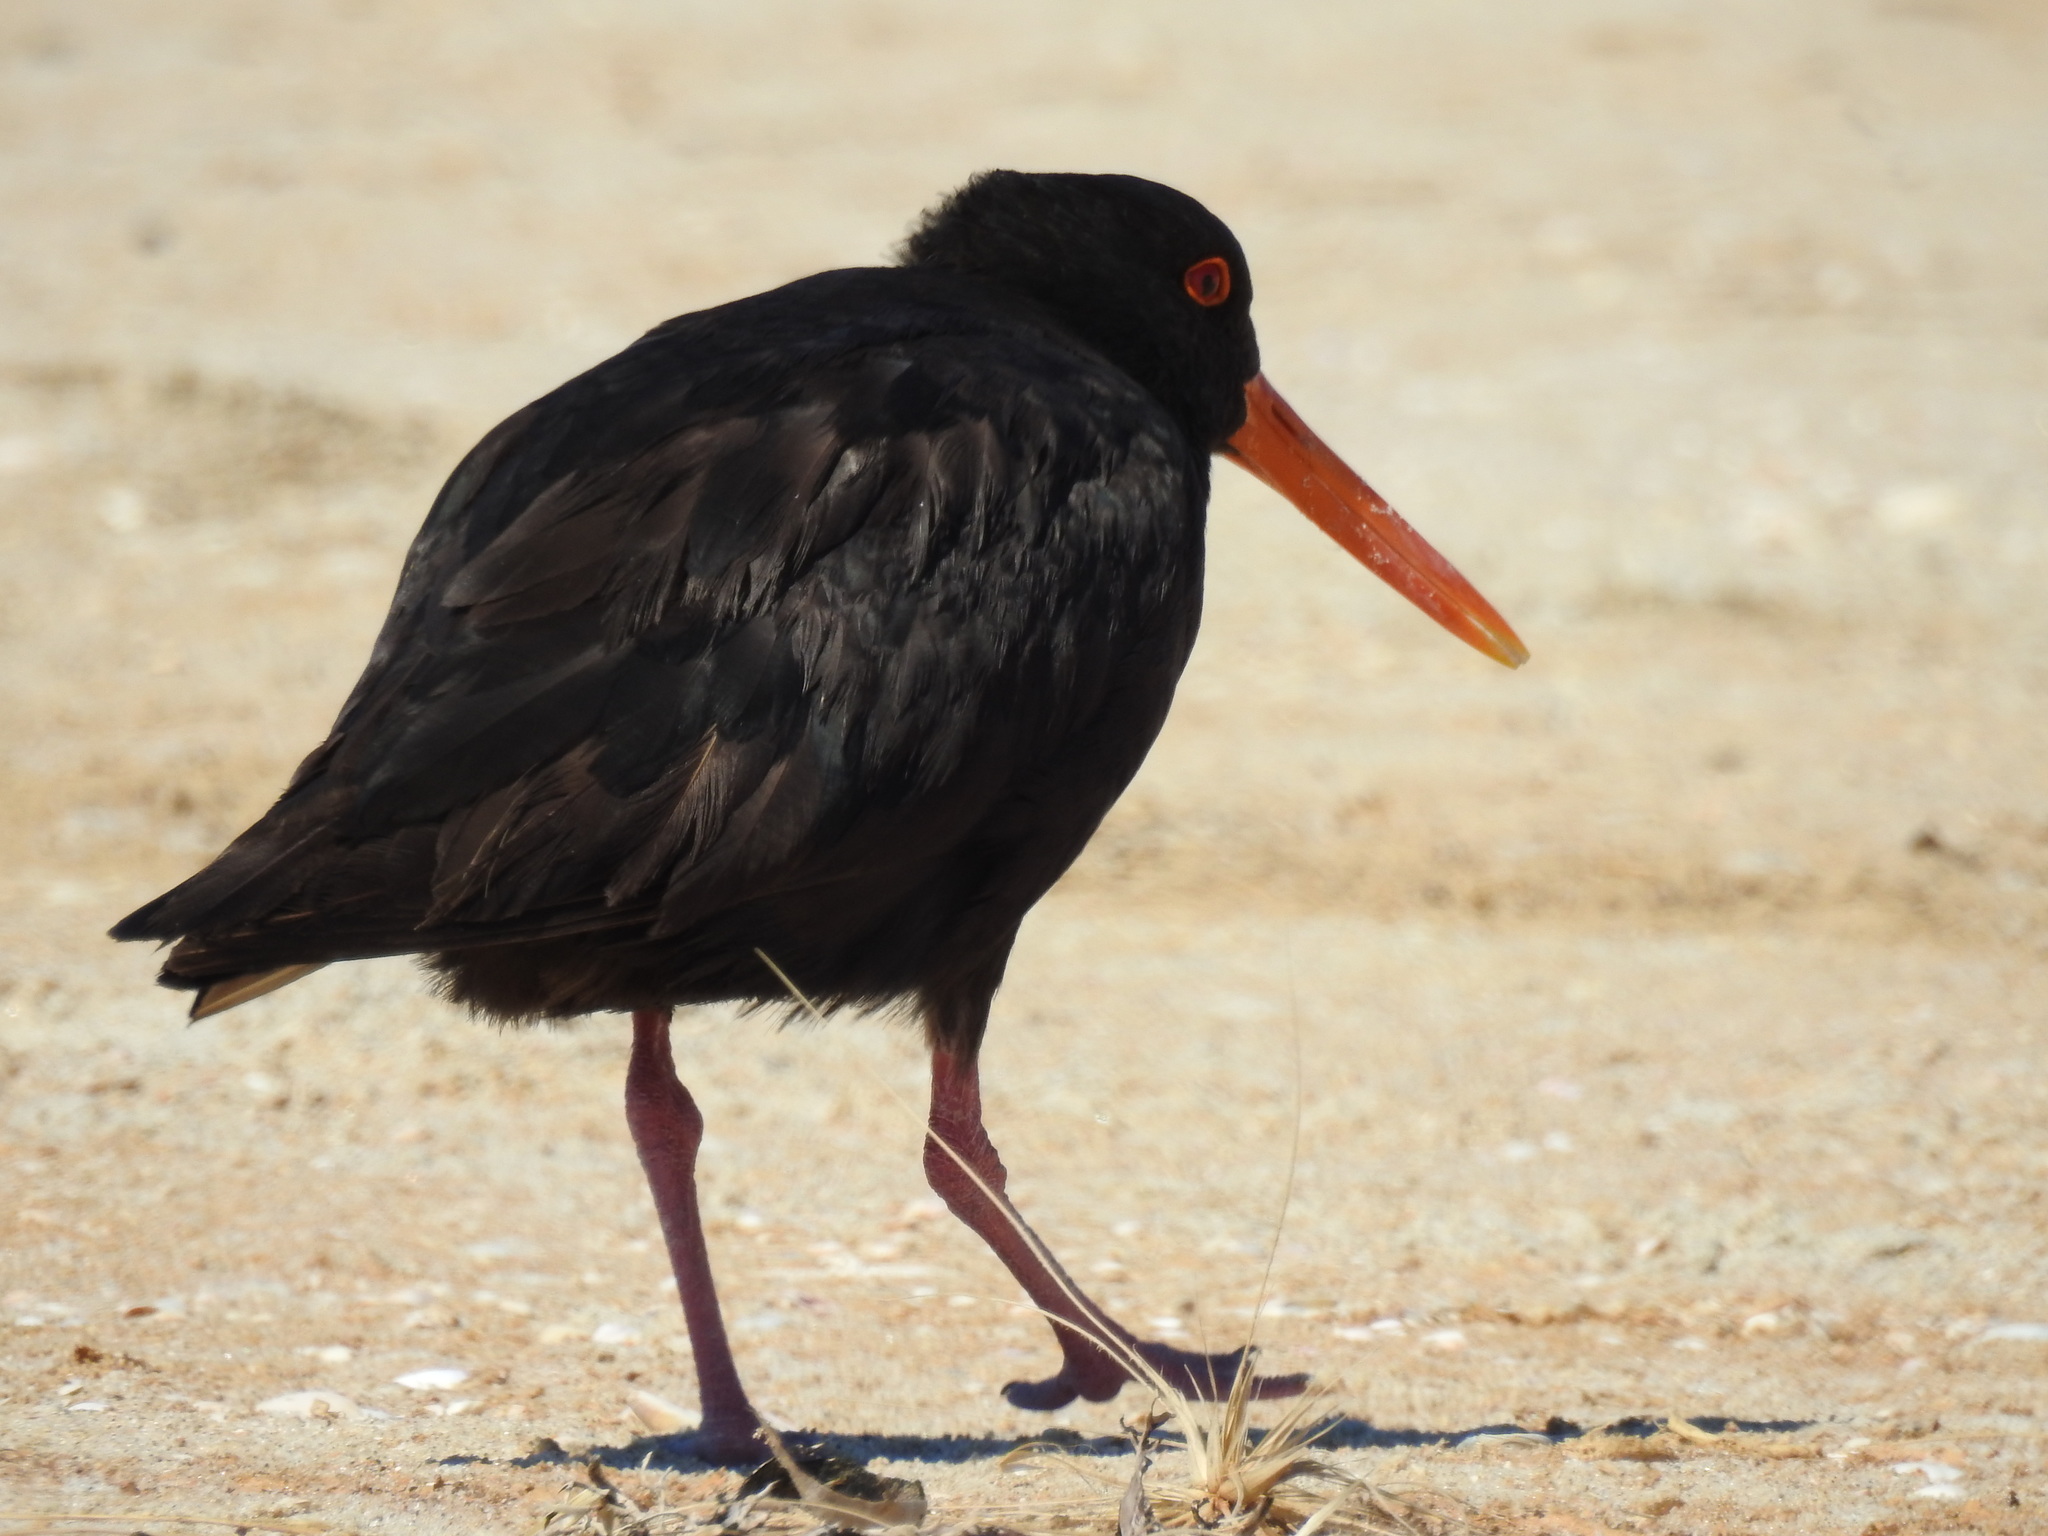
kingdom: Animalia
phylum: Chordata
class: Aves
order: Charadriiformes
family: Haematopodidae
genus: Haematopus
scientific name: Haematopus unicolor
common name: Variable oystercatcher
